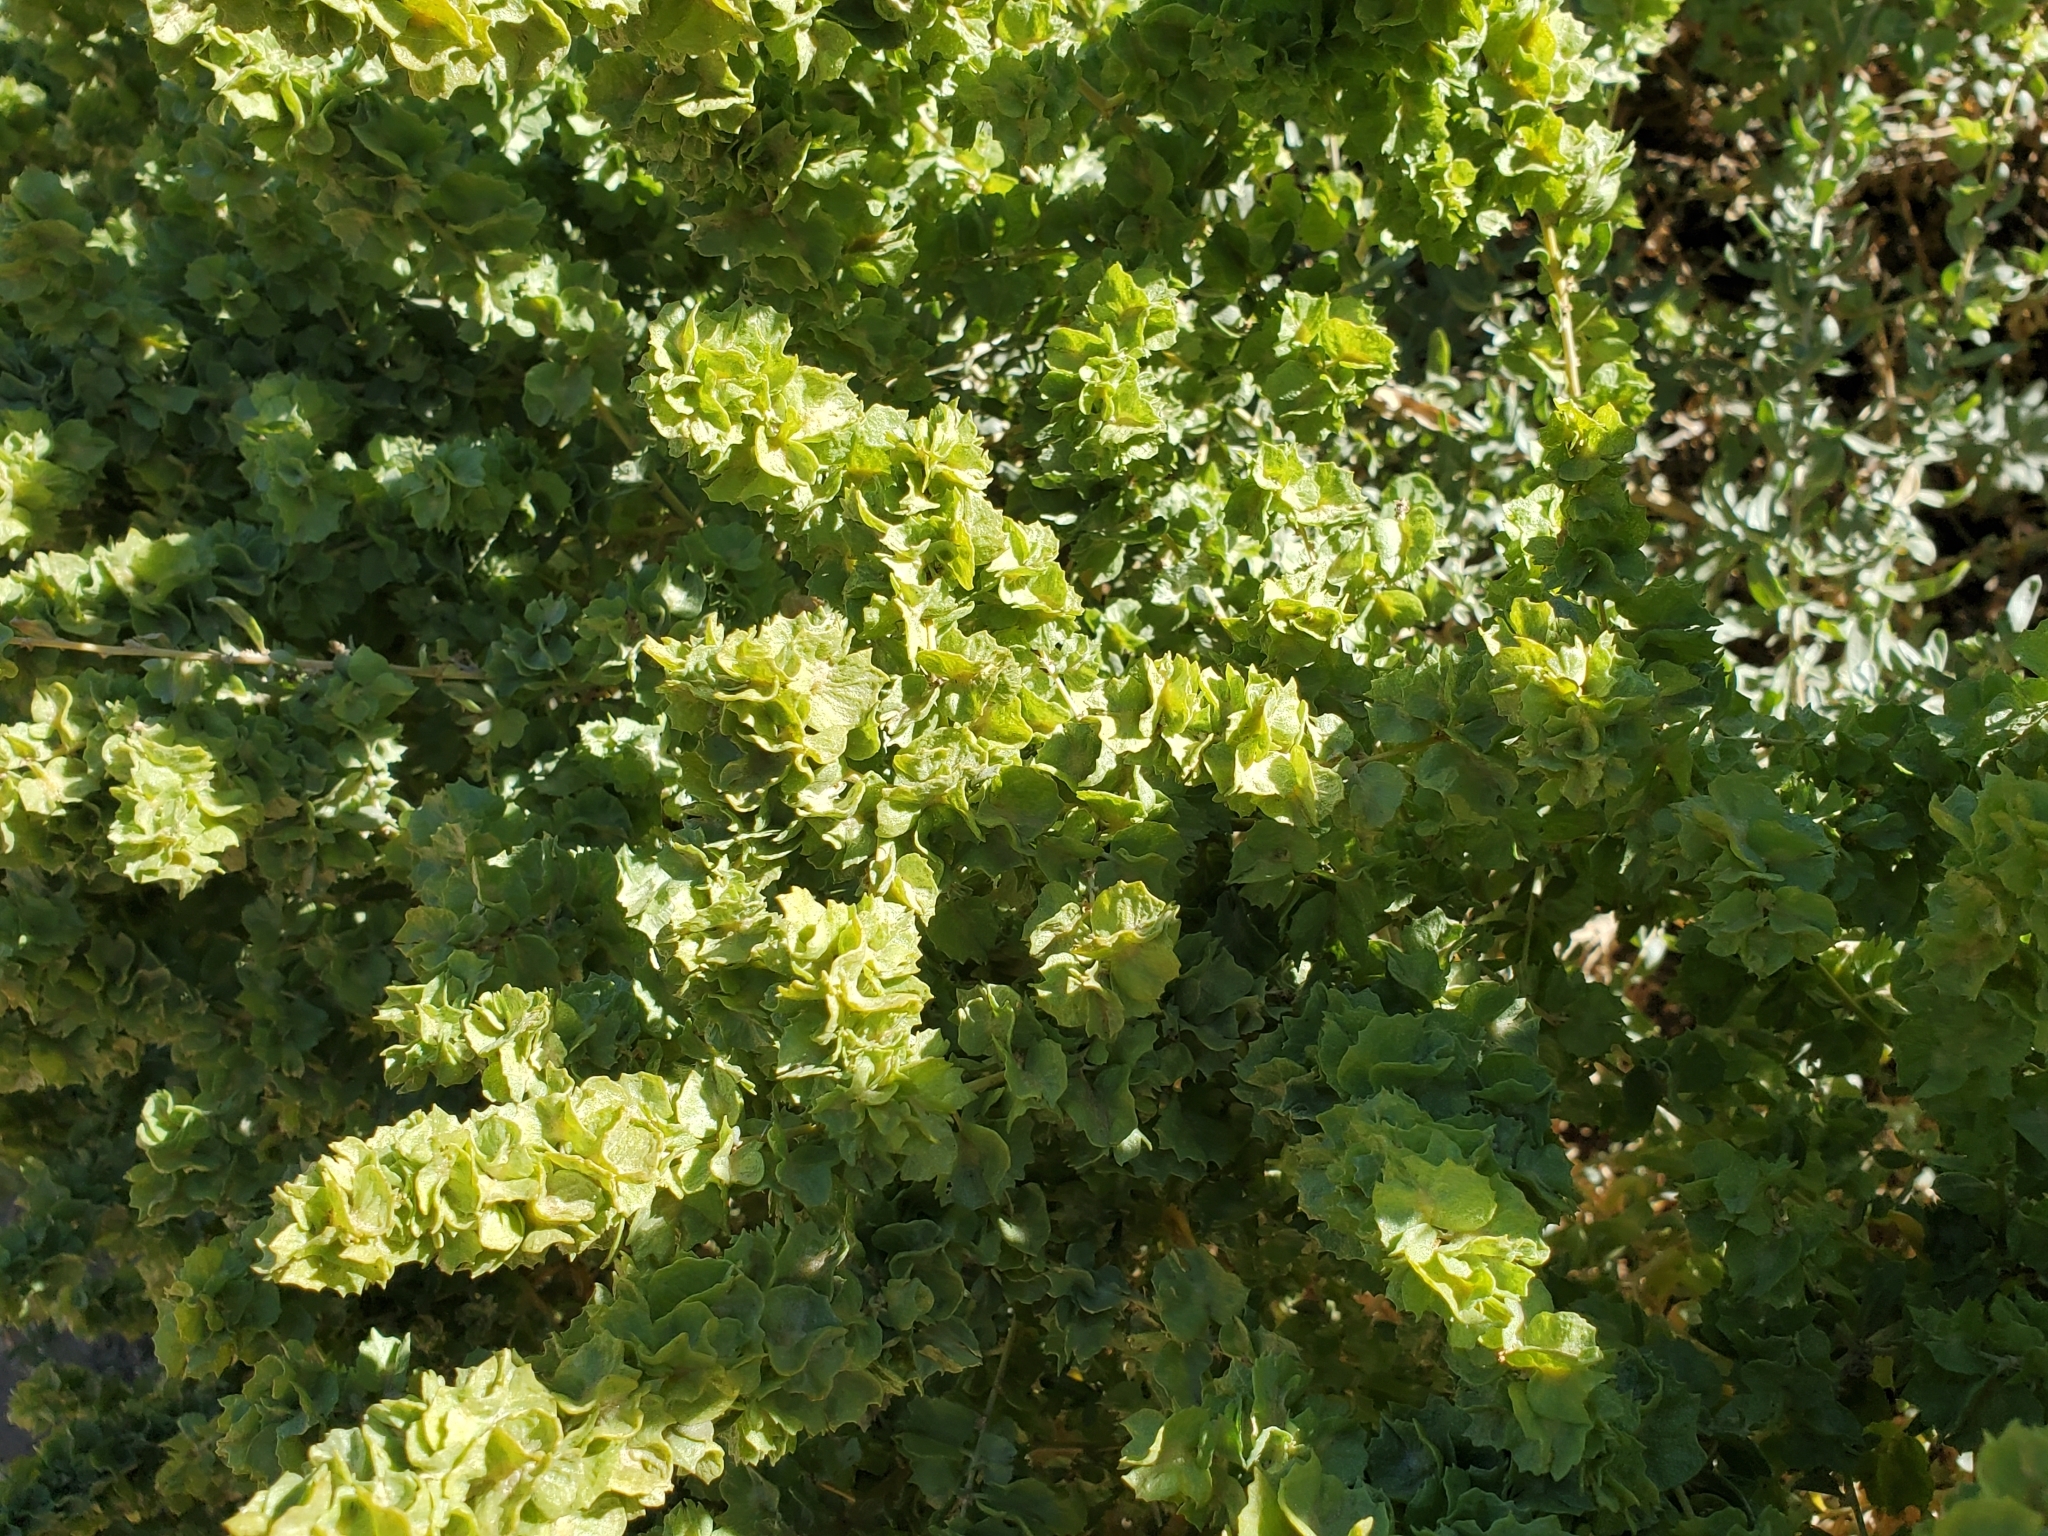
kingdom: Plantae
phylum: Tracheophyta
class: Magnoliopsida
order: Caryophyllales
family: Amaranthaceae
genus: Atriplex
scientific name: Atriplex canescens
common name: Four-wing saltbush
